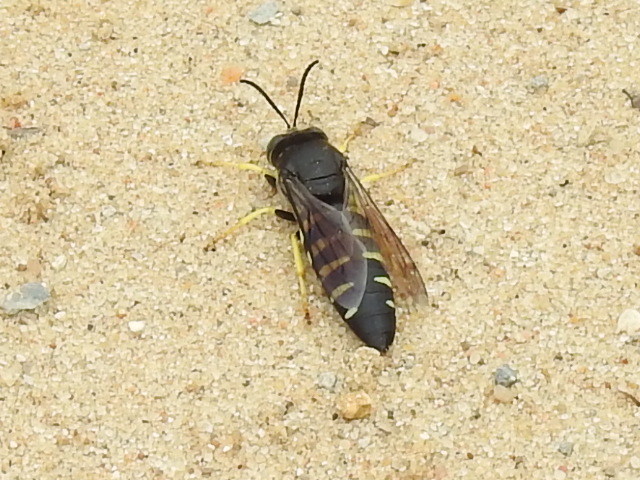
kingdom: Animalia
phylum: Arthropoda
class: Insecta
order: Hymenoptera
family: Crabronidae
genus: Bicyrtes
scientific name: Bicyrtes quadrifasciatus
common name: Four-banded stink bug hunter wasp
